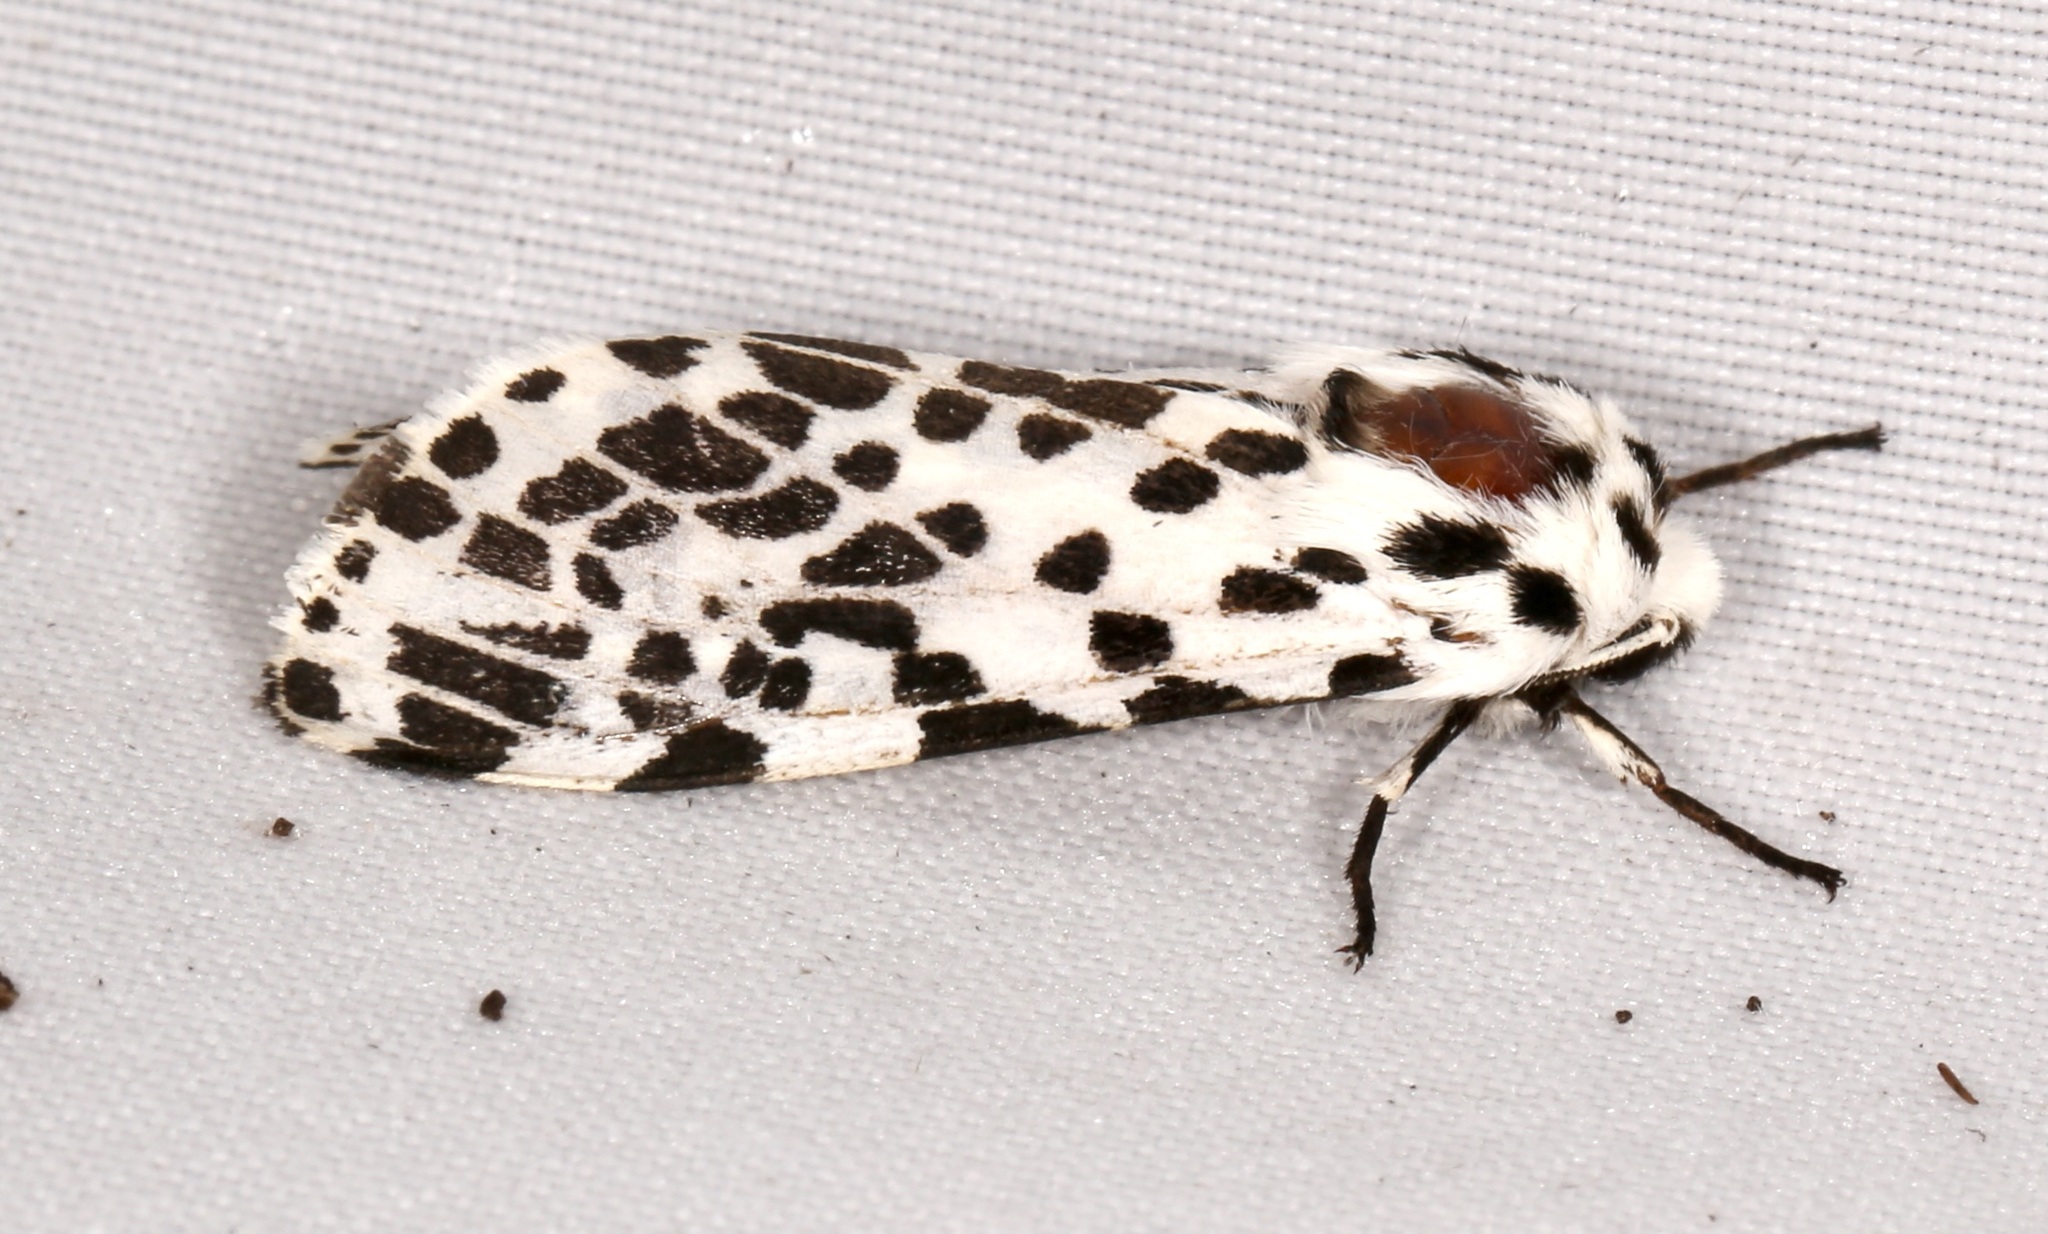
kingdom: Animalia
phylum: Arthropoda
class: Insecta
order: Lepidoptera
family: Erebidae
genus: Hypercompe
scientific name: Hypercompe permaculata
